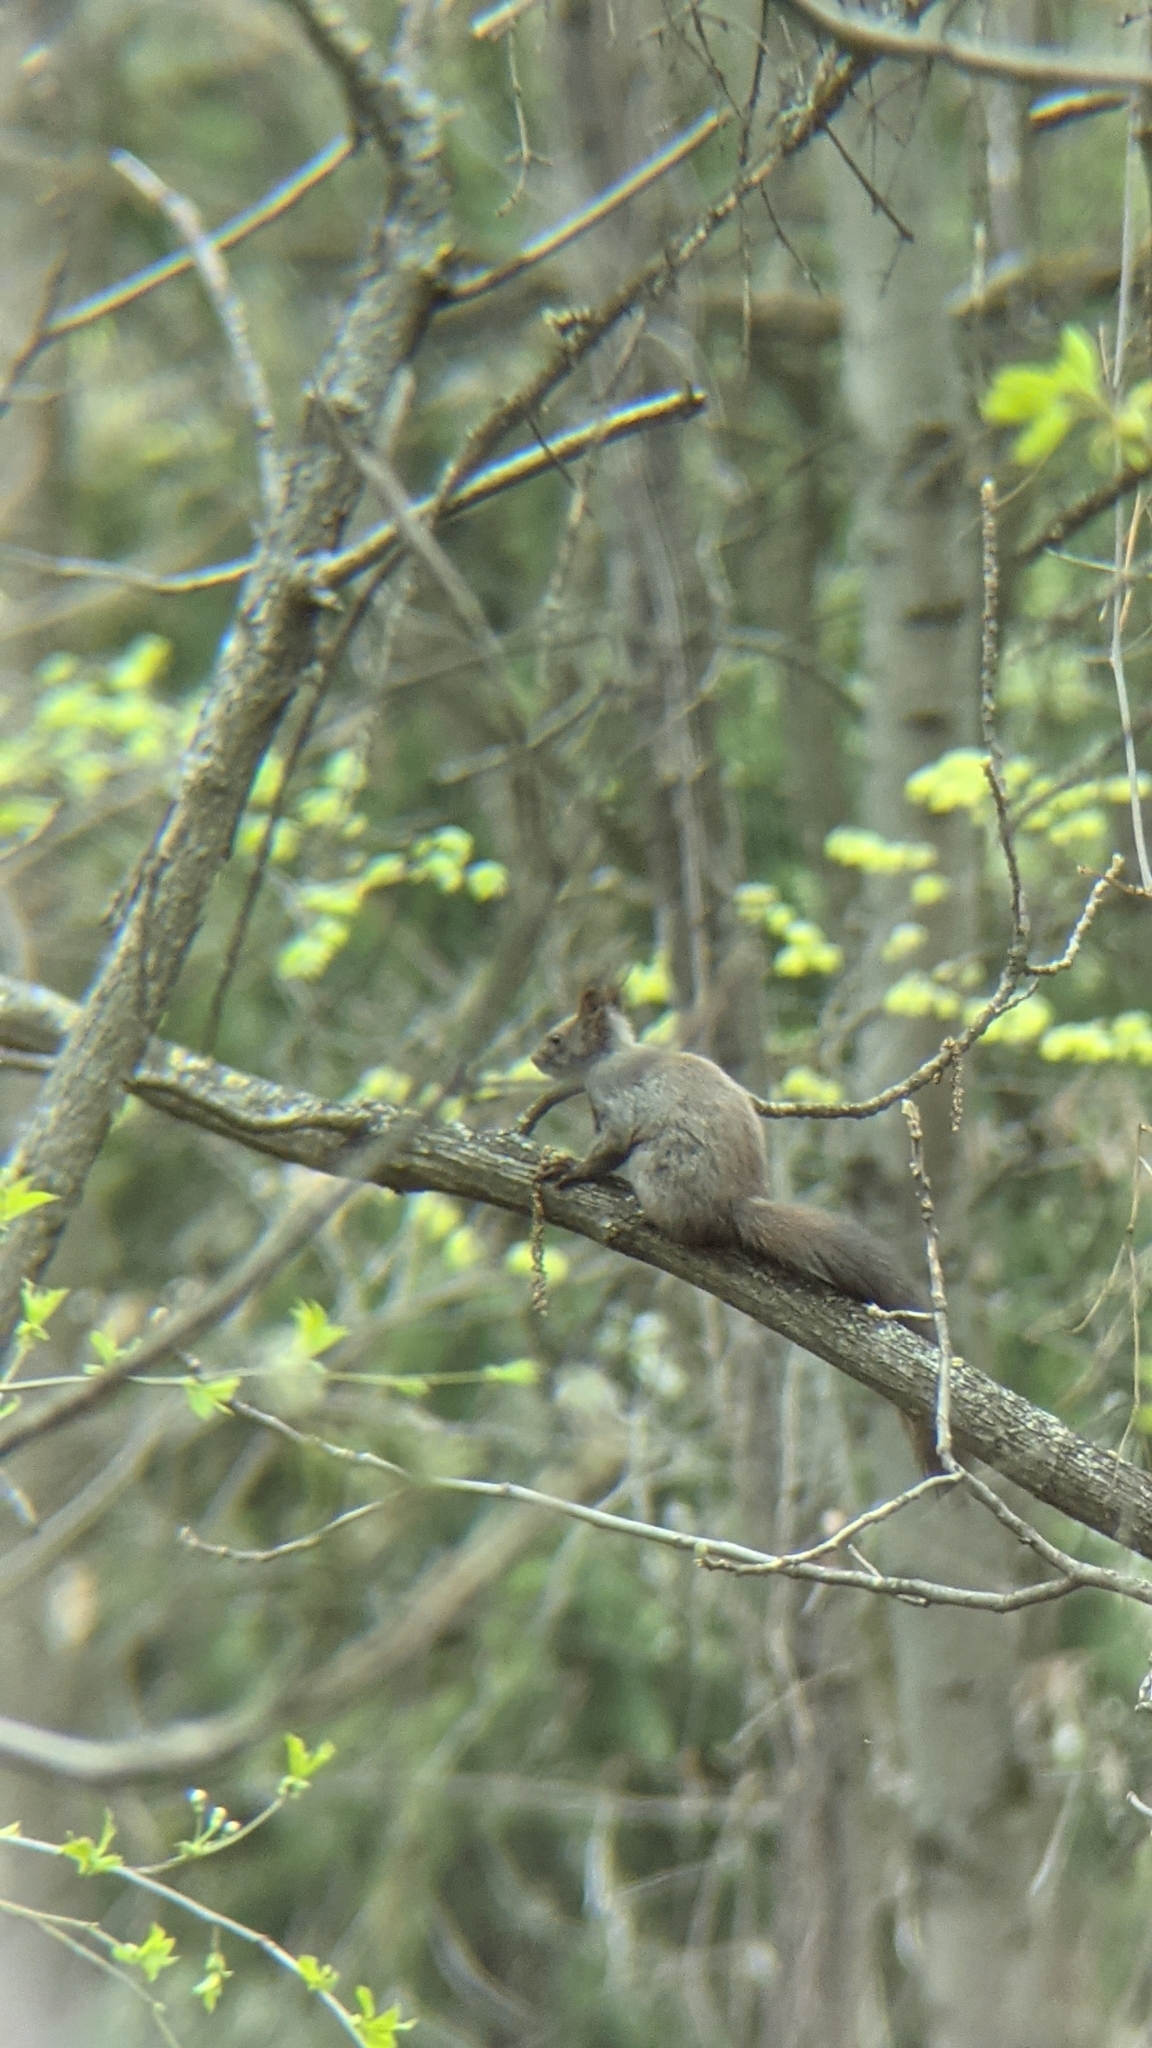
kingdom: Animalia
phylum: Chordata
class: Mammalia
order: Rodentia
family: Sciuridae
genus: Sciurus
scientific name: Sciurus vulgaris
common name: Eurasian red squirrel
